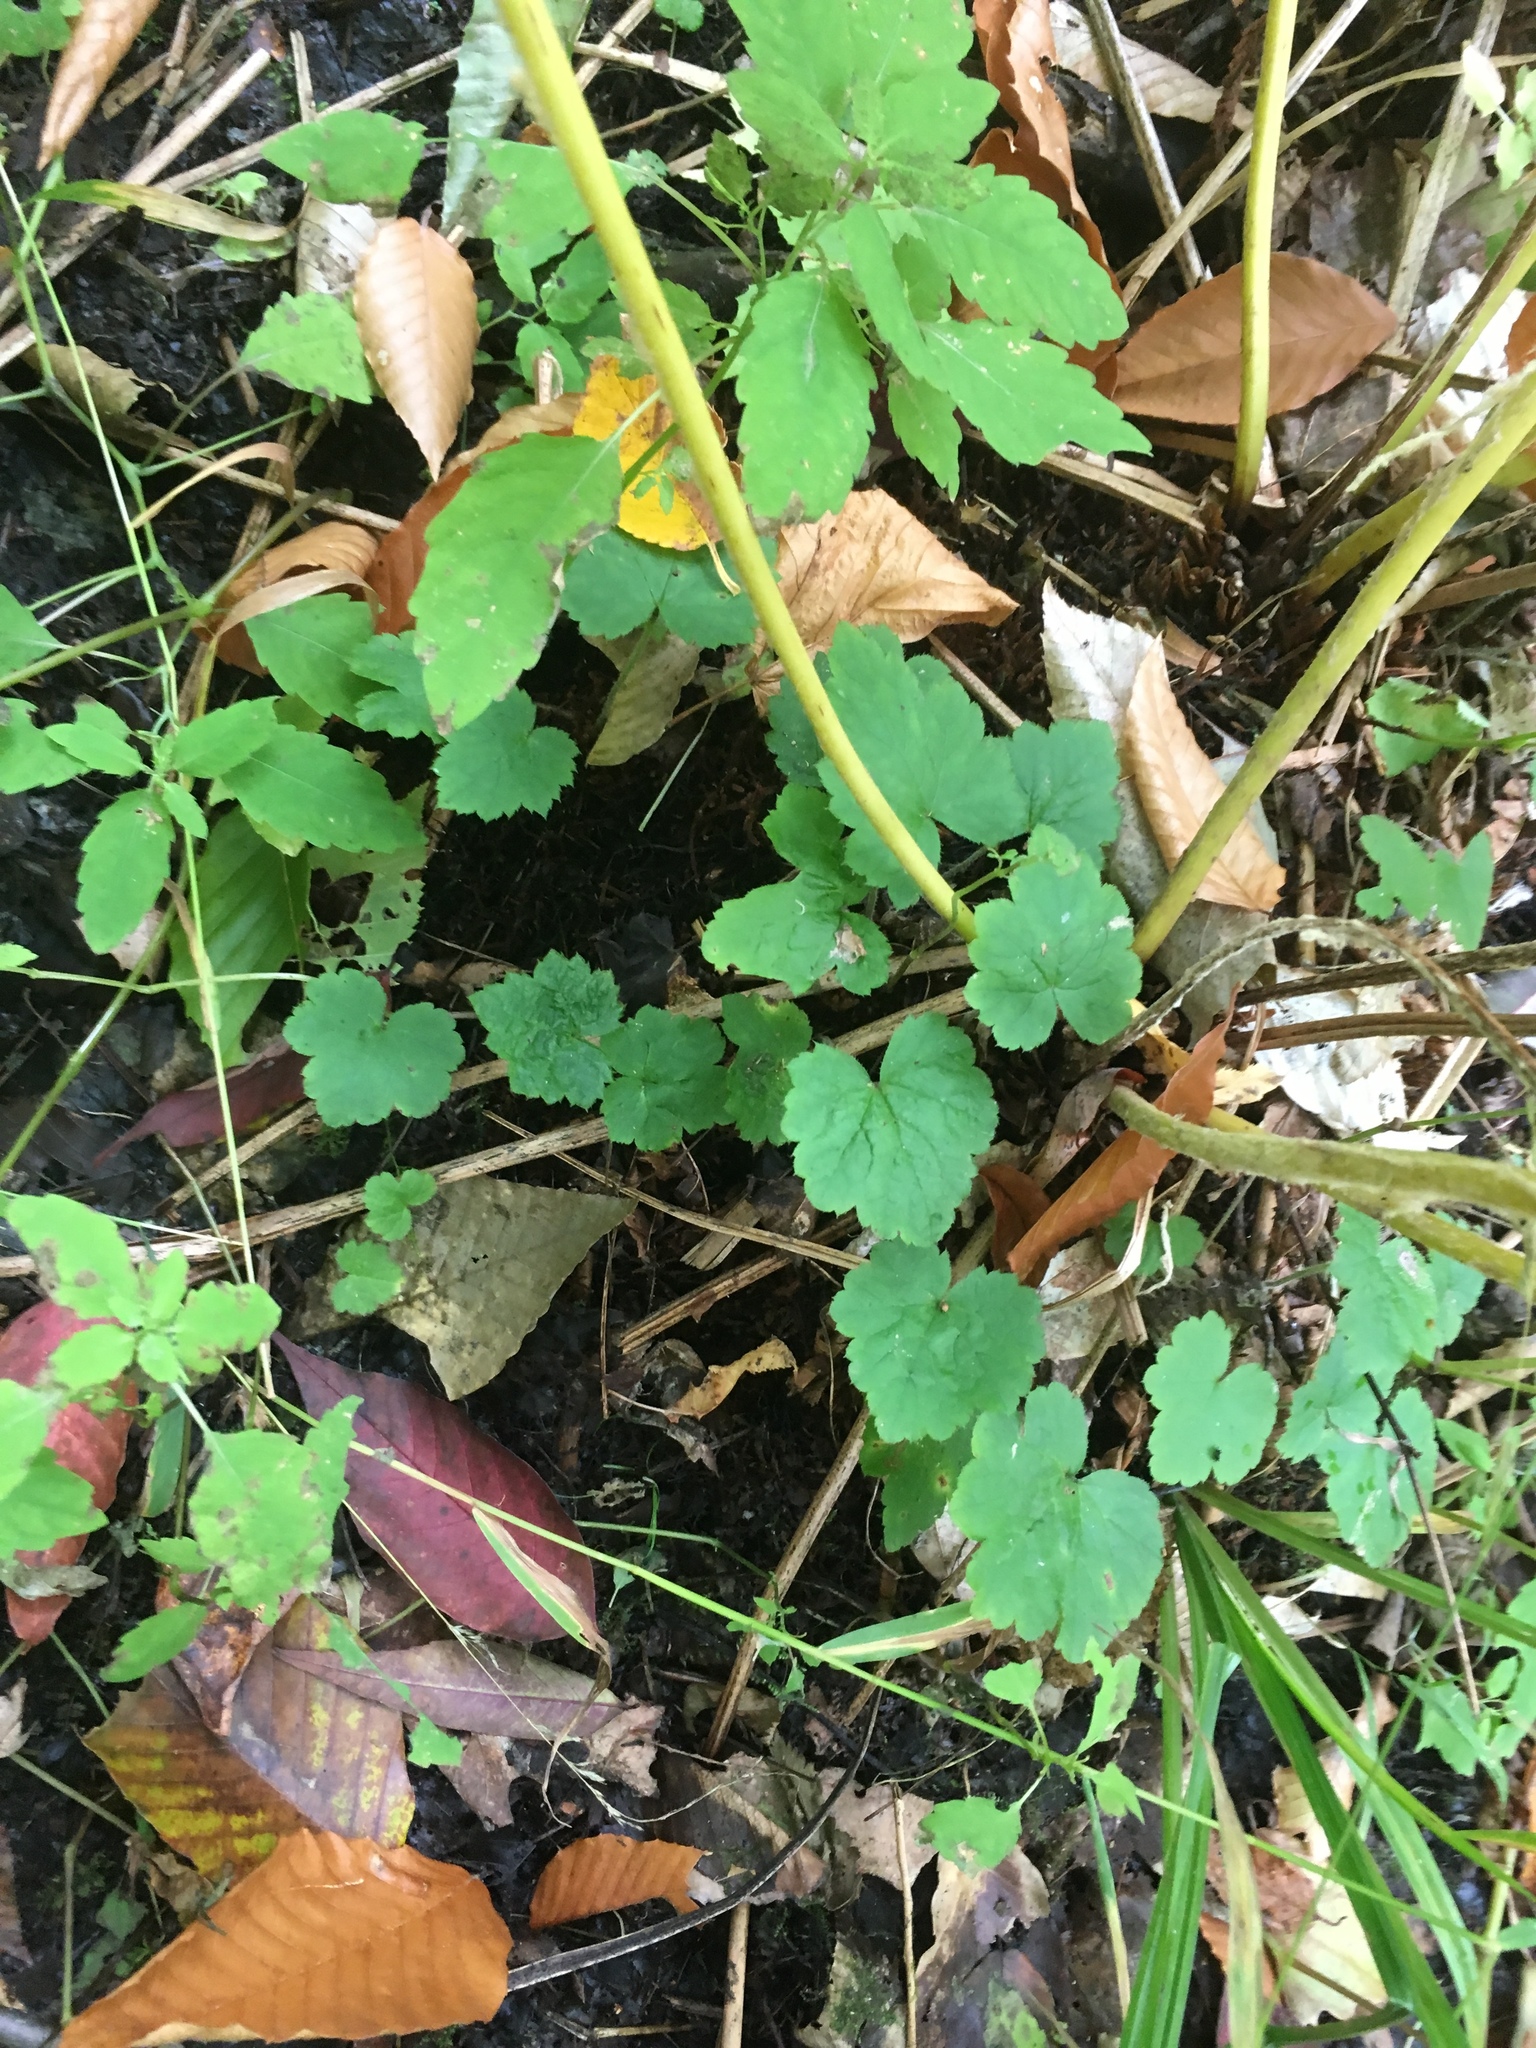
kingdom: Plantae
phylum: Tracheophyta
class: Magnoliopsida
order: Saxifragales
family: Saxifragaceae
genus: Tiarella
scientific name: Tiarella stolonifera
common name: Stoloniferous foamflower
